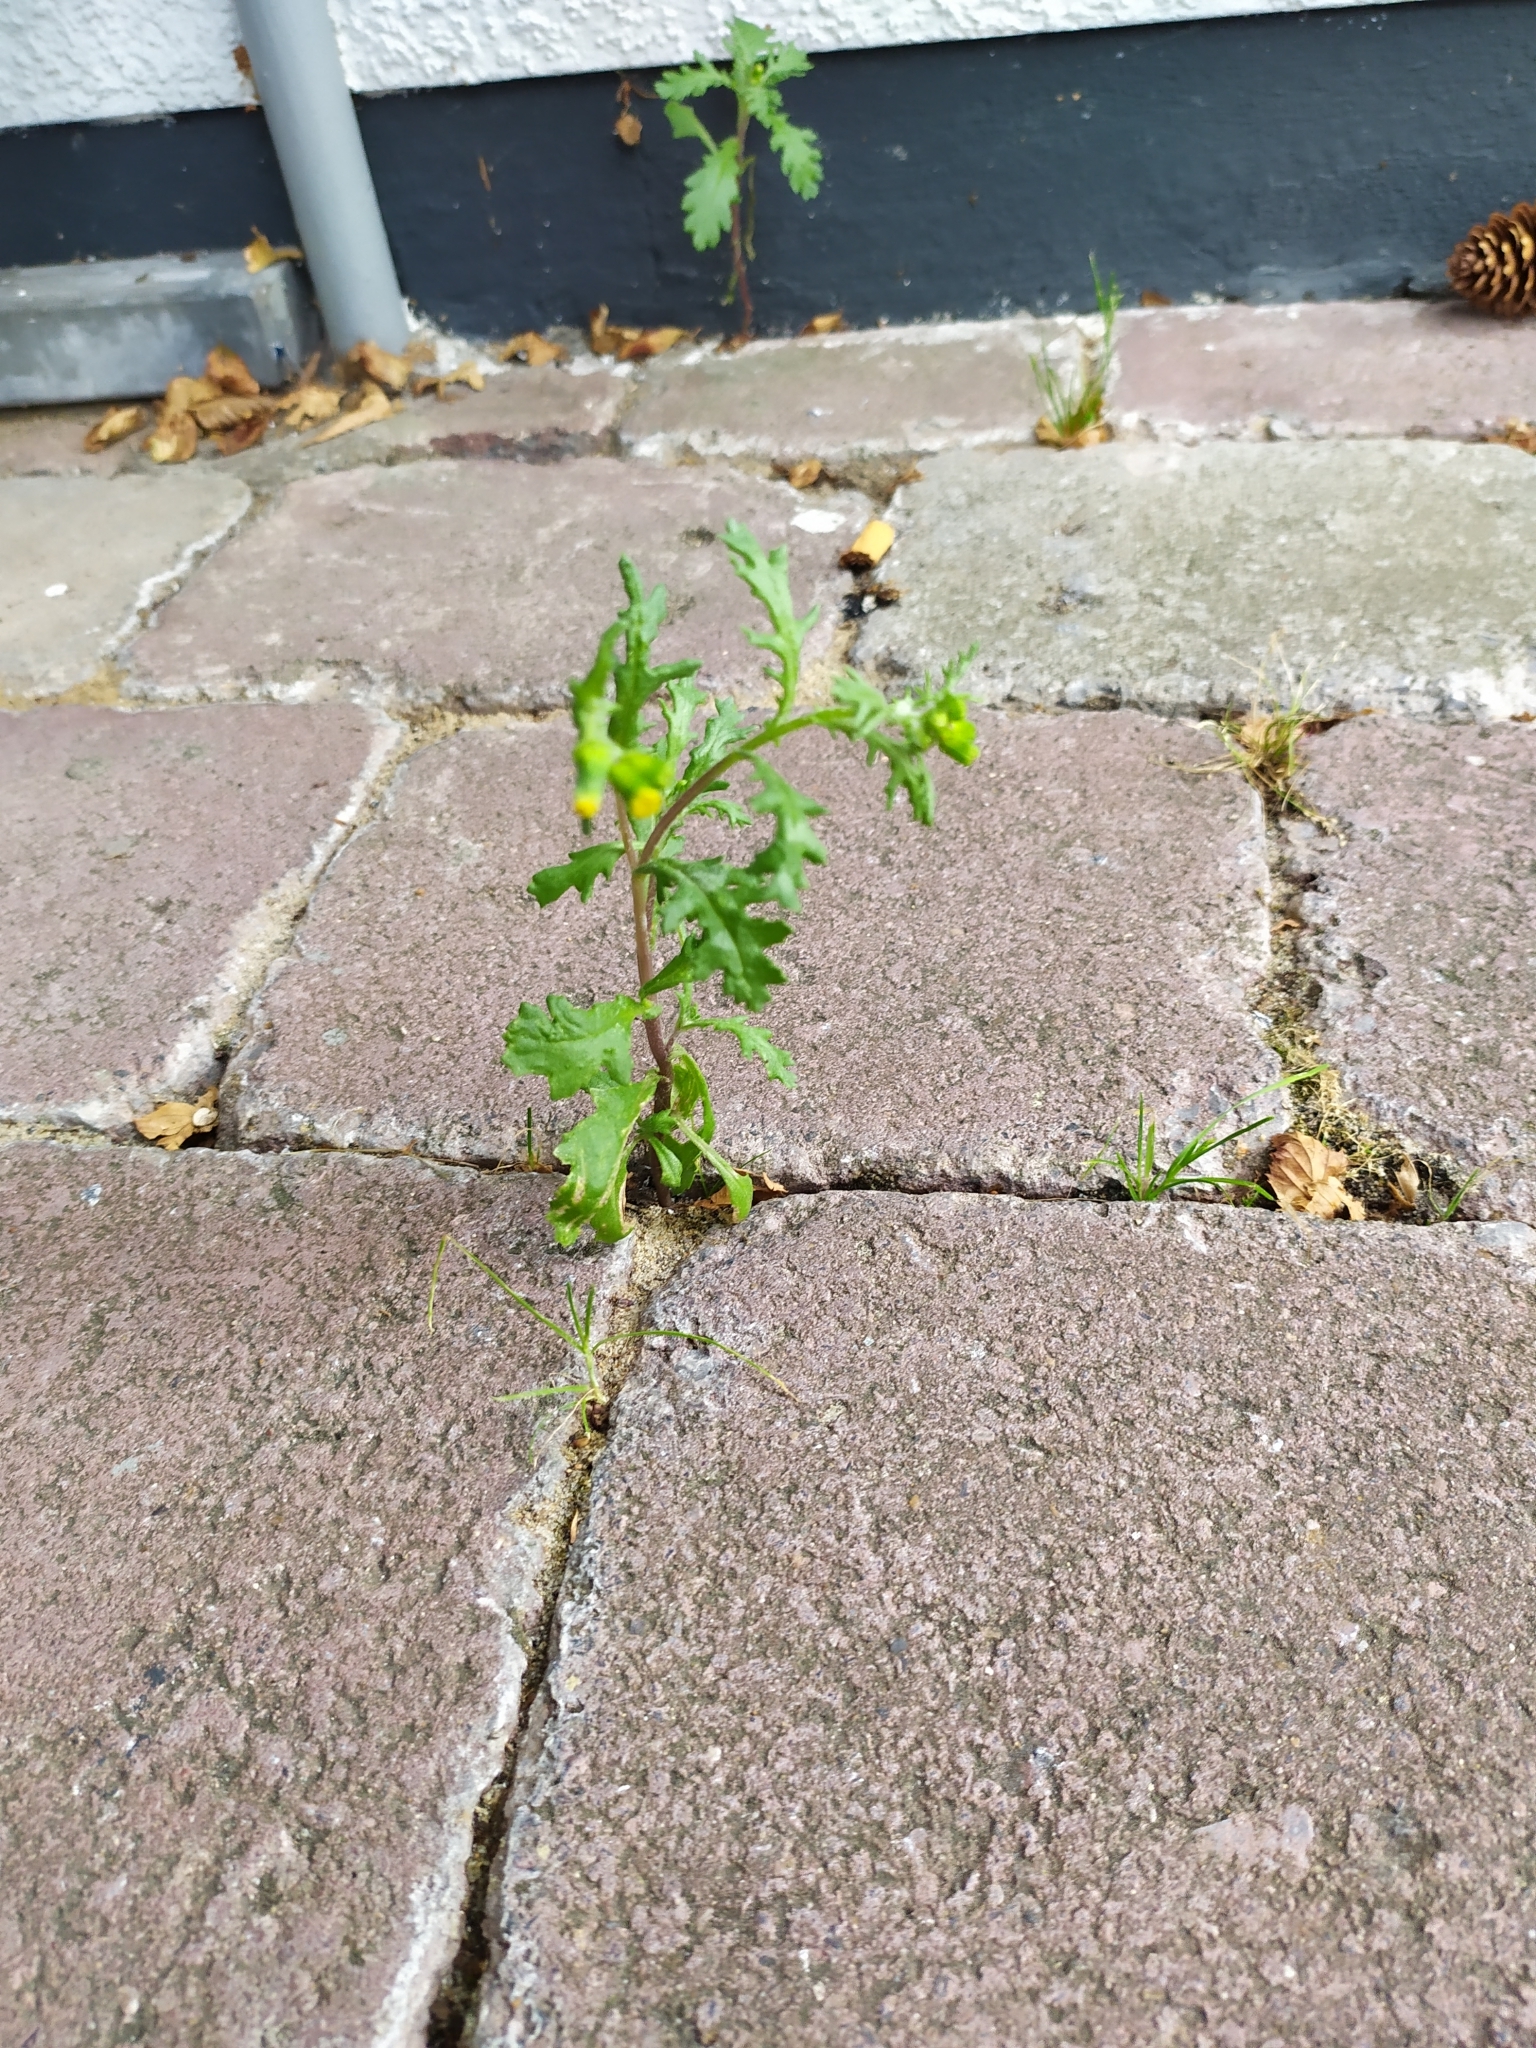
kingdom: Plantae
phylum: Tracheophyta
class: Magnoliopsida
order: Asterales
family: Asteraceae
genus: Senecio
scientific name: Senecio vulgaris
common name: Old-man-in-the-spring
